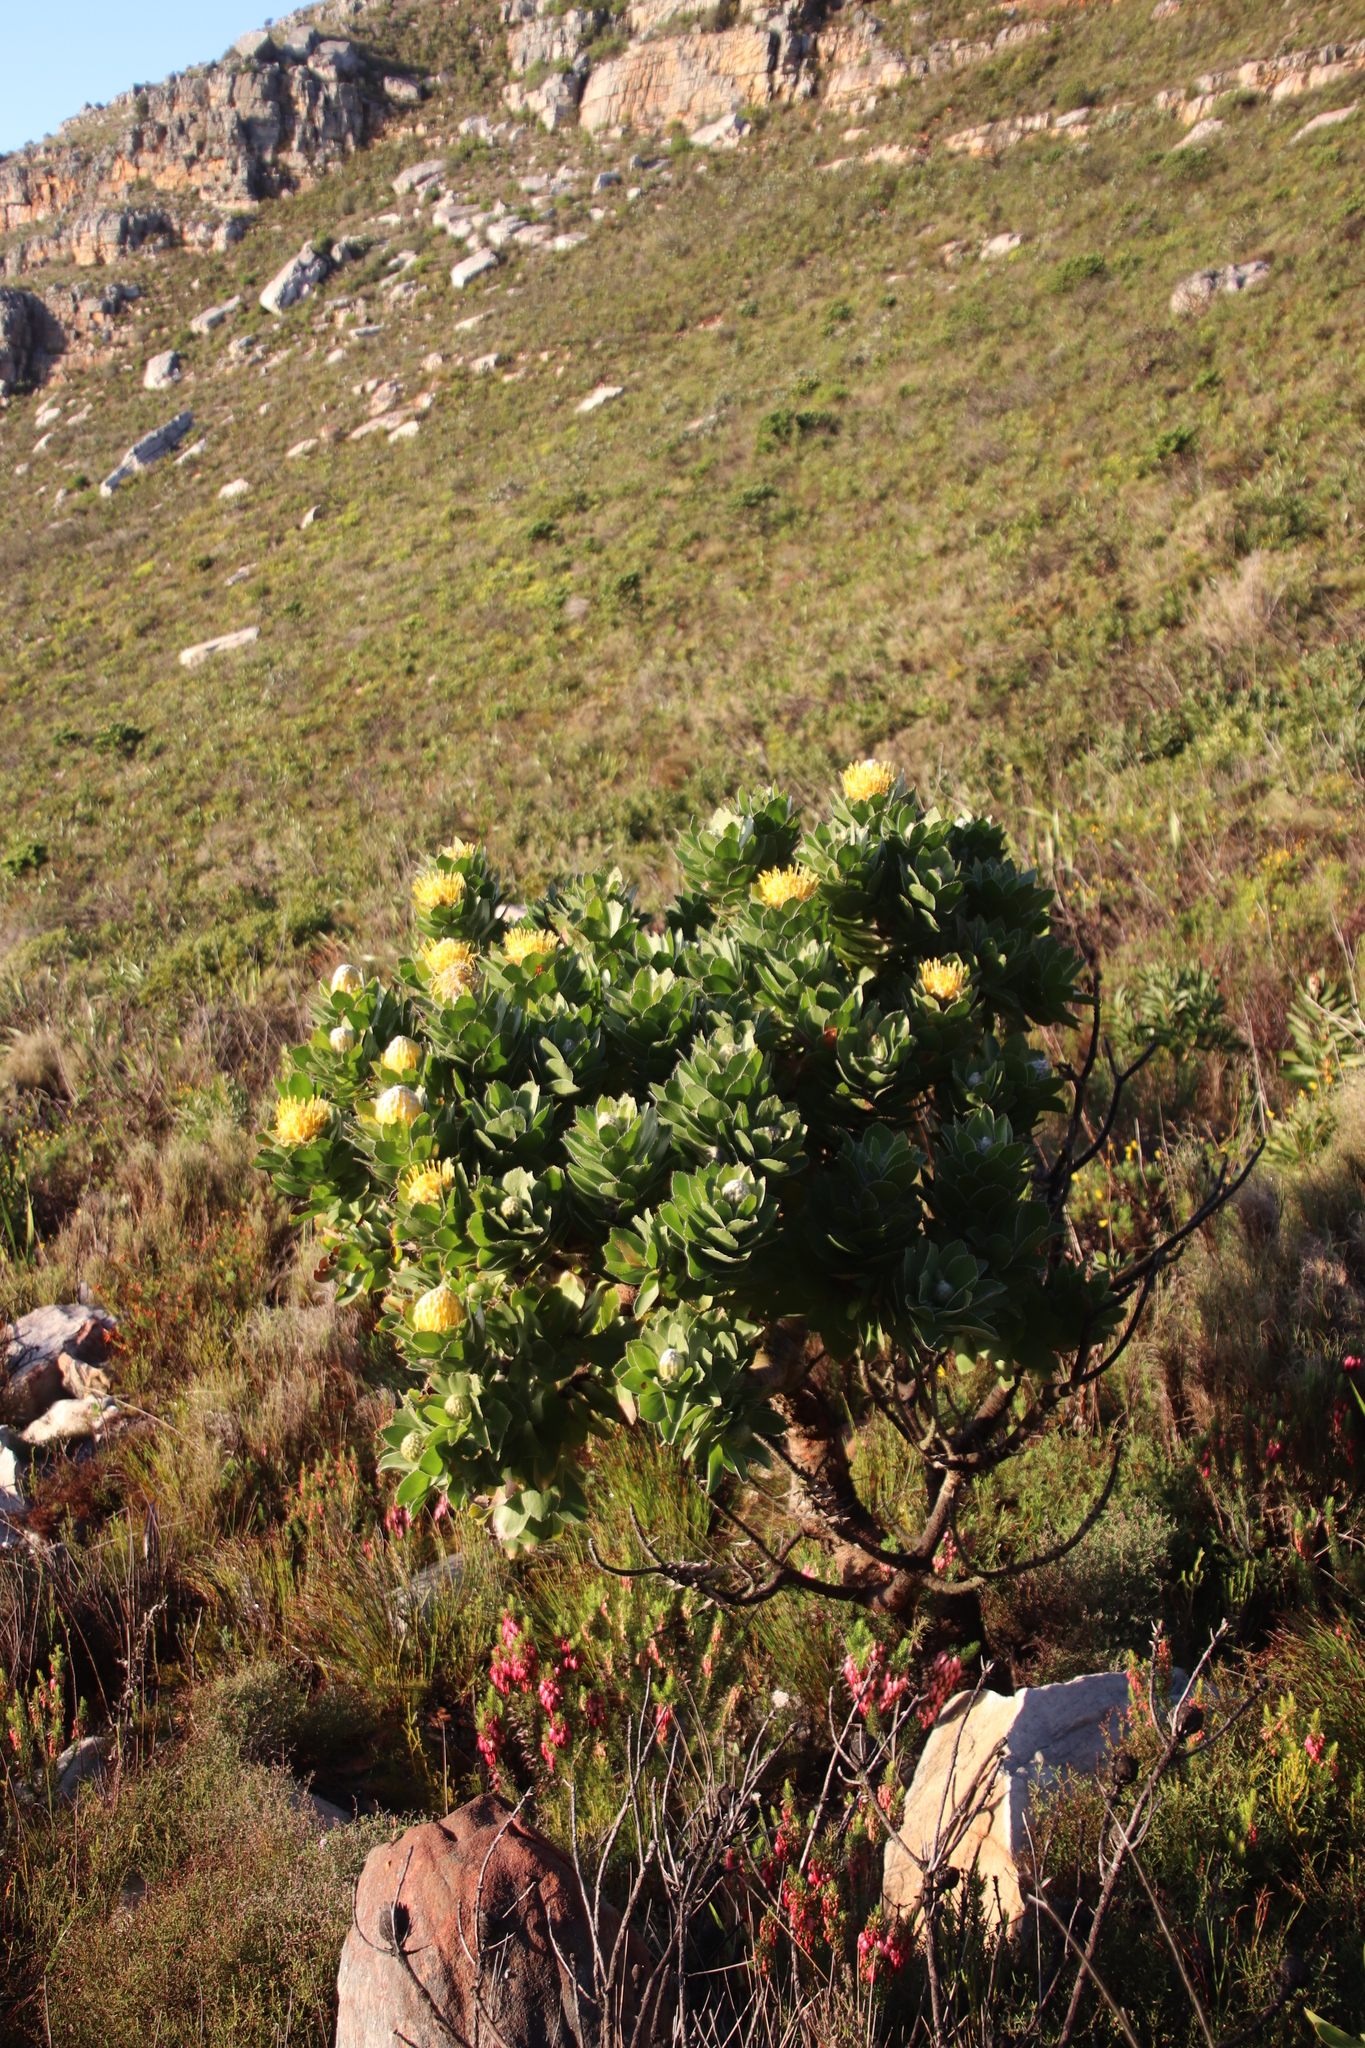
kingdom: Plantae
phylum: Tracheophyta
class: Magnoliopsida
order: Proteales
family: Proteaceae
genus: Leucospermum
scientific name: Leucospermum conocarpodendron
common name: Tree pincushion
